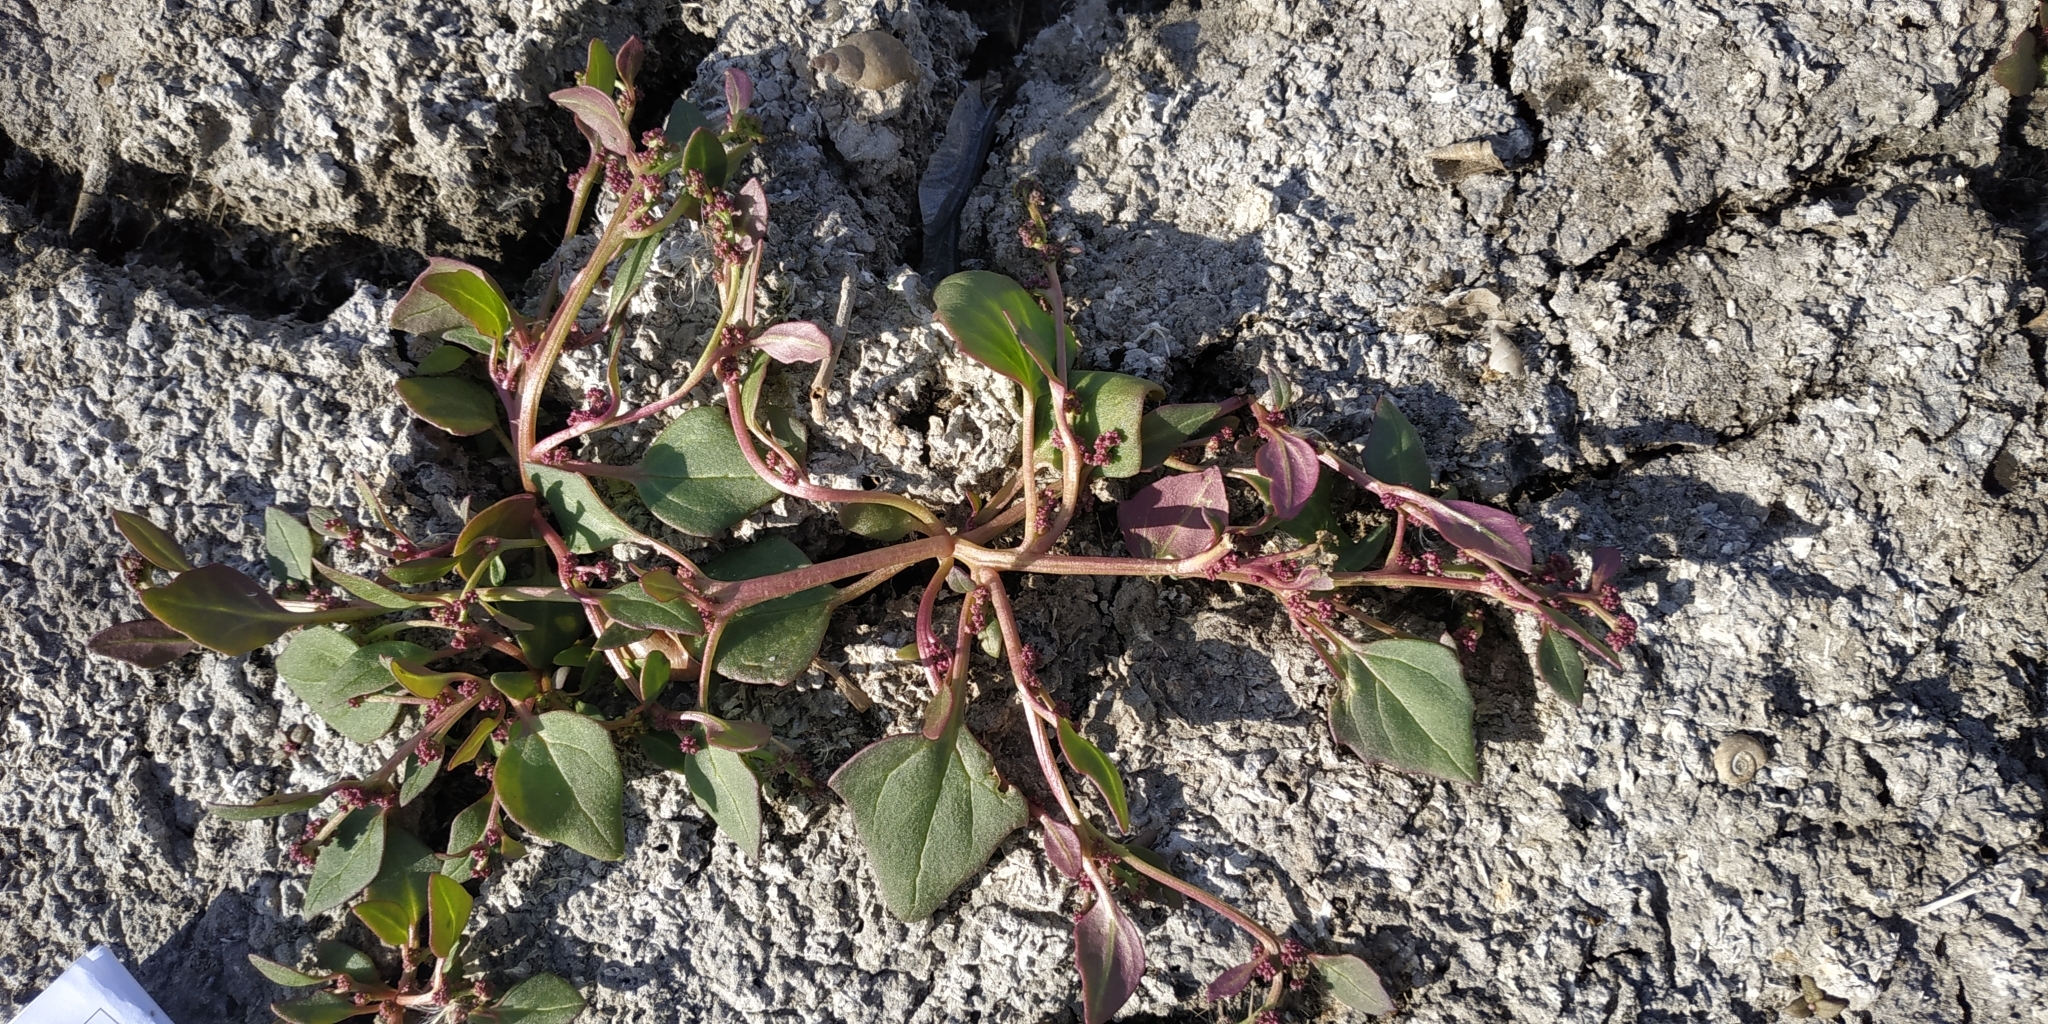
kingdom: Plantae
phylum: Tracheophyta
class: Magnoliopsida
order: Caryophyllales
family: Amaranthaceae
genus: Oxybasis
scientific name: Oxybasis glauca
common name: Glaucous goosefoot
